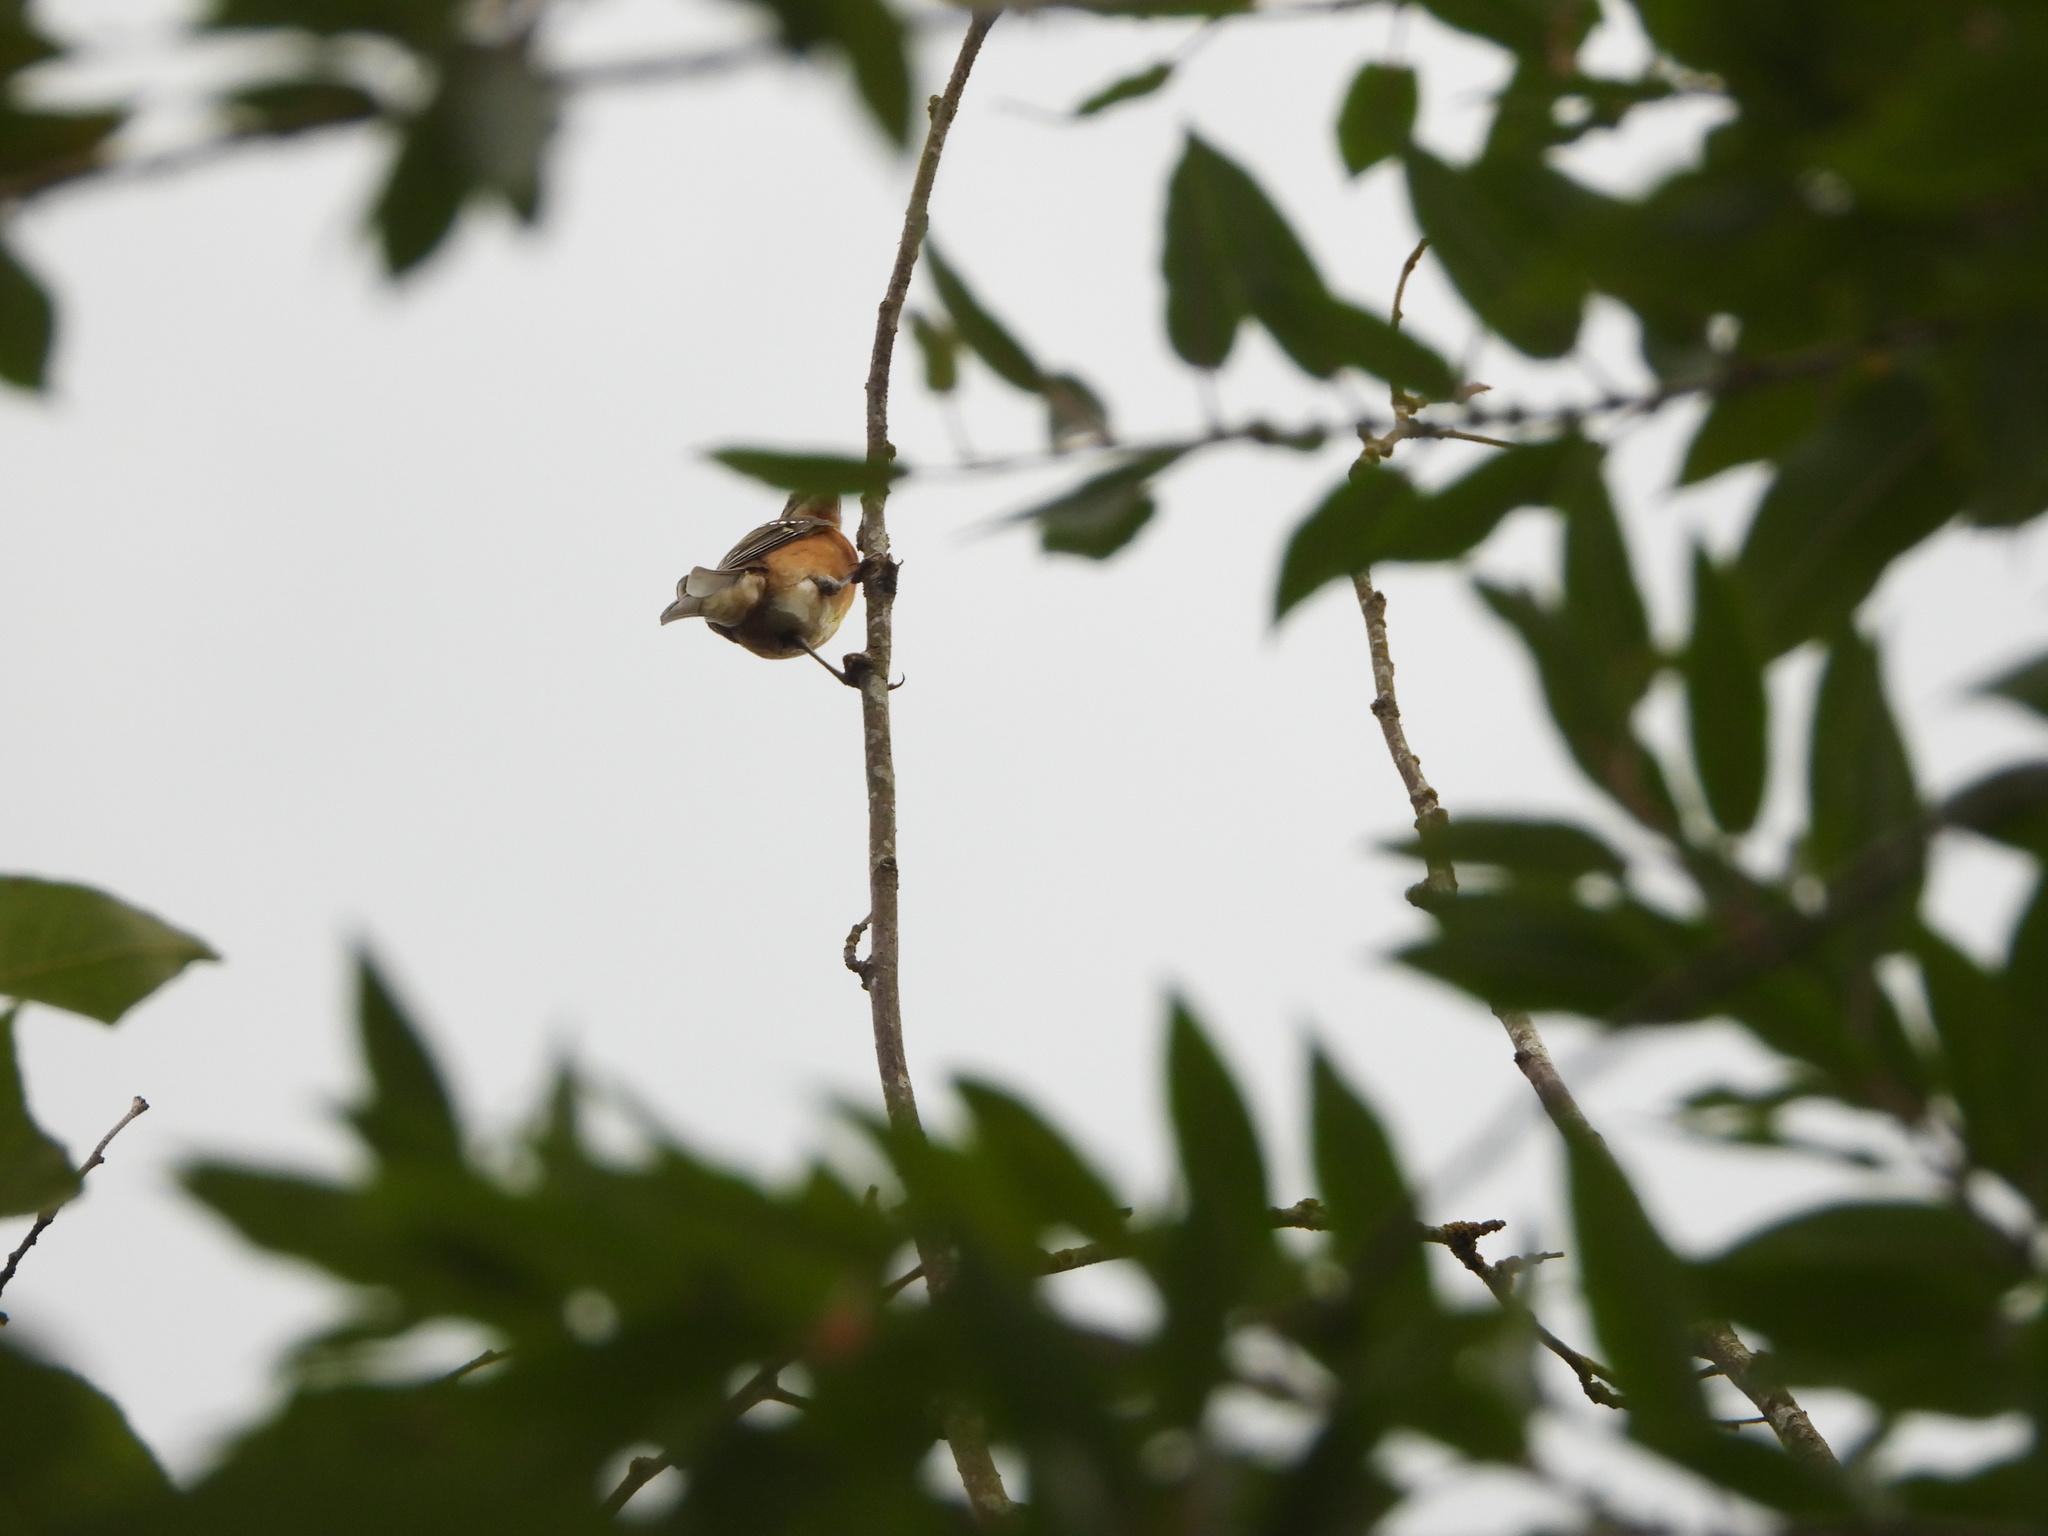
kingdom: Animalia
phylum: Chordata
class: Aves
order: Passeriformes
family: Cardinalidae
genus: Pheucticus
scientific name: Pheucticus melanocephalus
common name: Black-headed grosbeak
